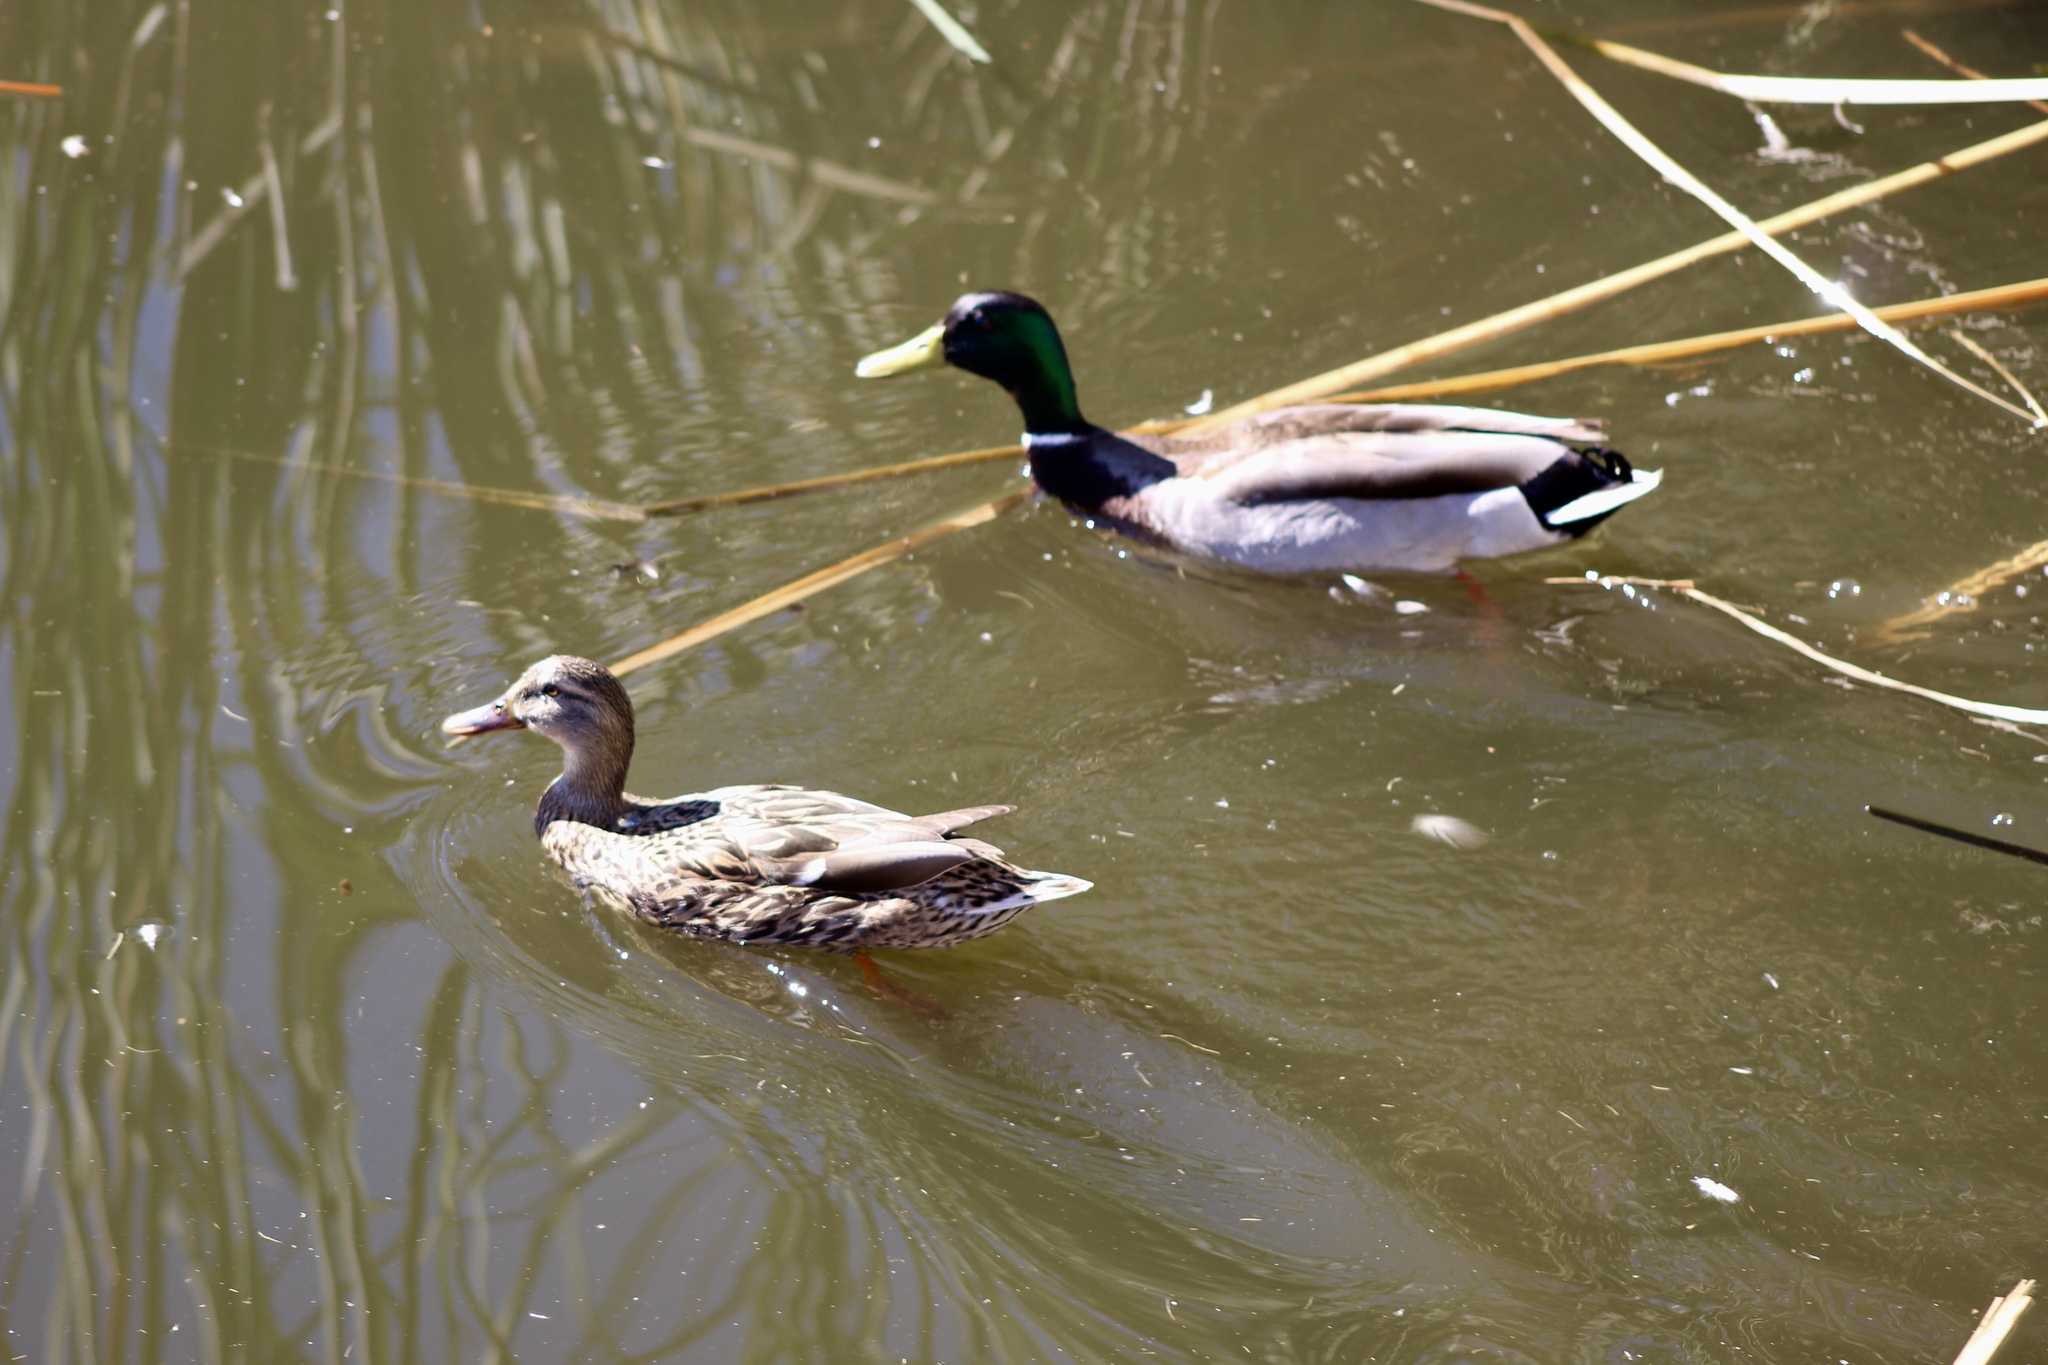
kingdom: Animalia
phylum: Chordata
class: Aves
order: Anseriformes
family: Anatidae
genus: Anas
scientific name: Anas platyrhynchos
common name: Mallard
